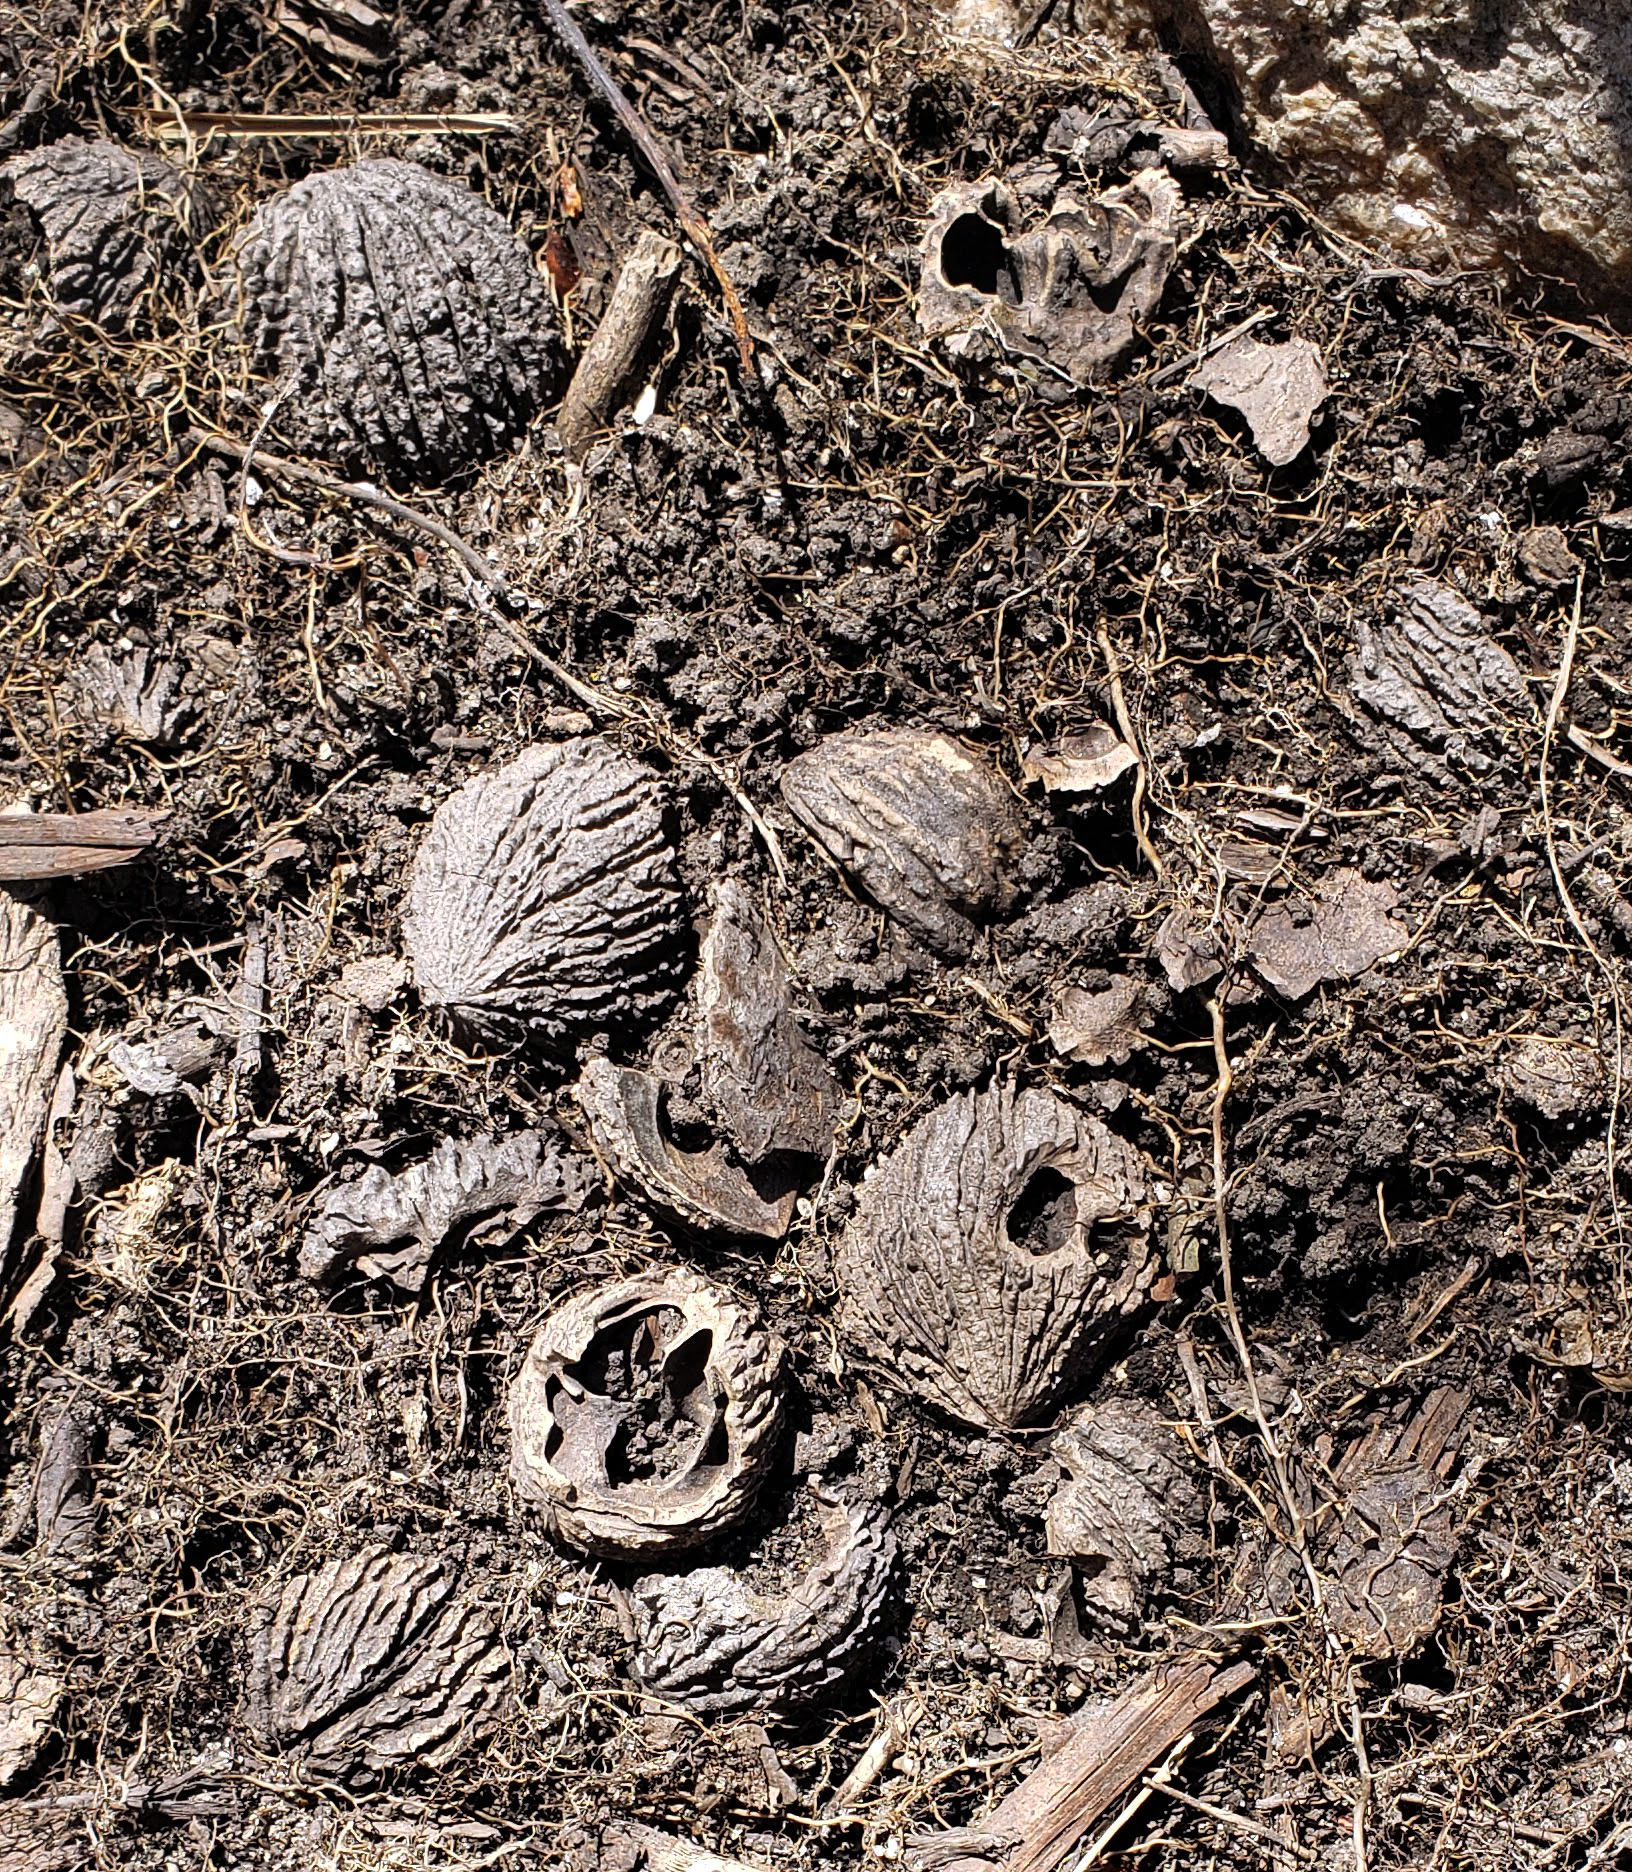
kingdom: Plantae
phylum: Tracheophyta
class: Magnoliopsida
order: Fagales
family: Juglandaceae
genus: Juglans
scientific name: Juglans nigra
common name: Black walnut
